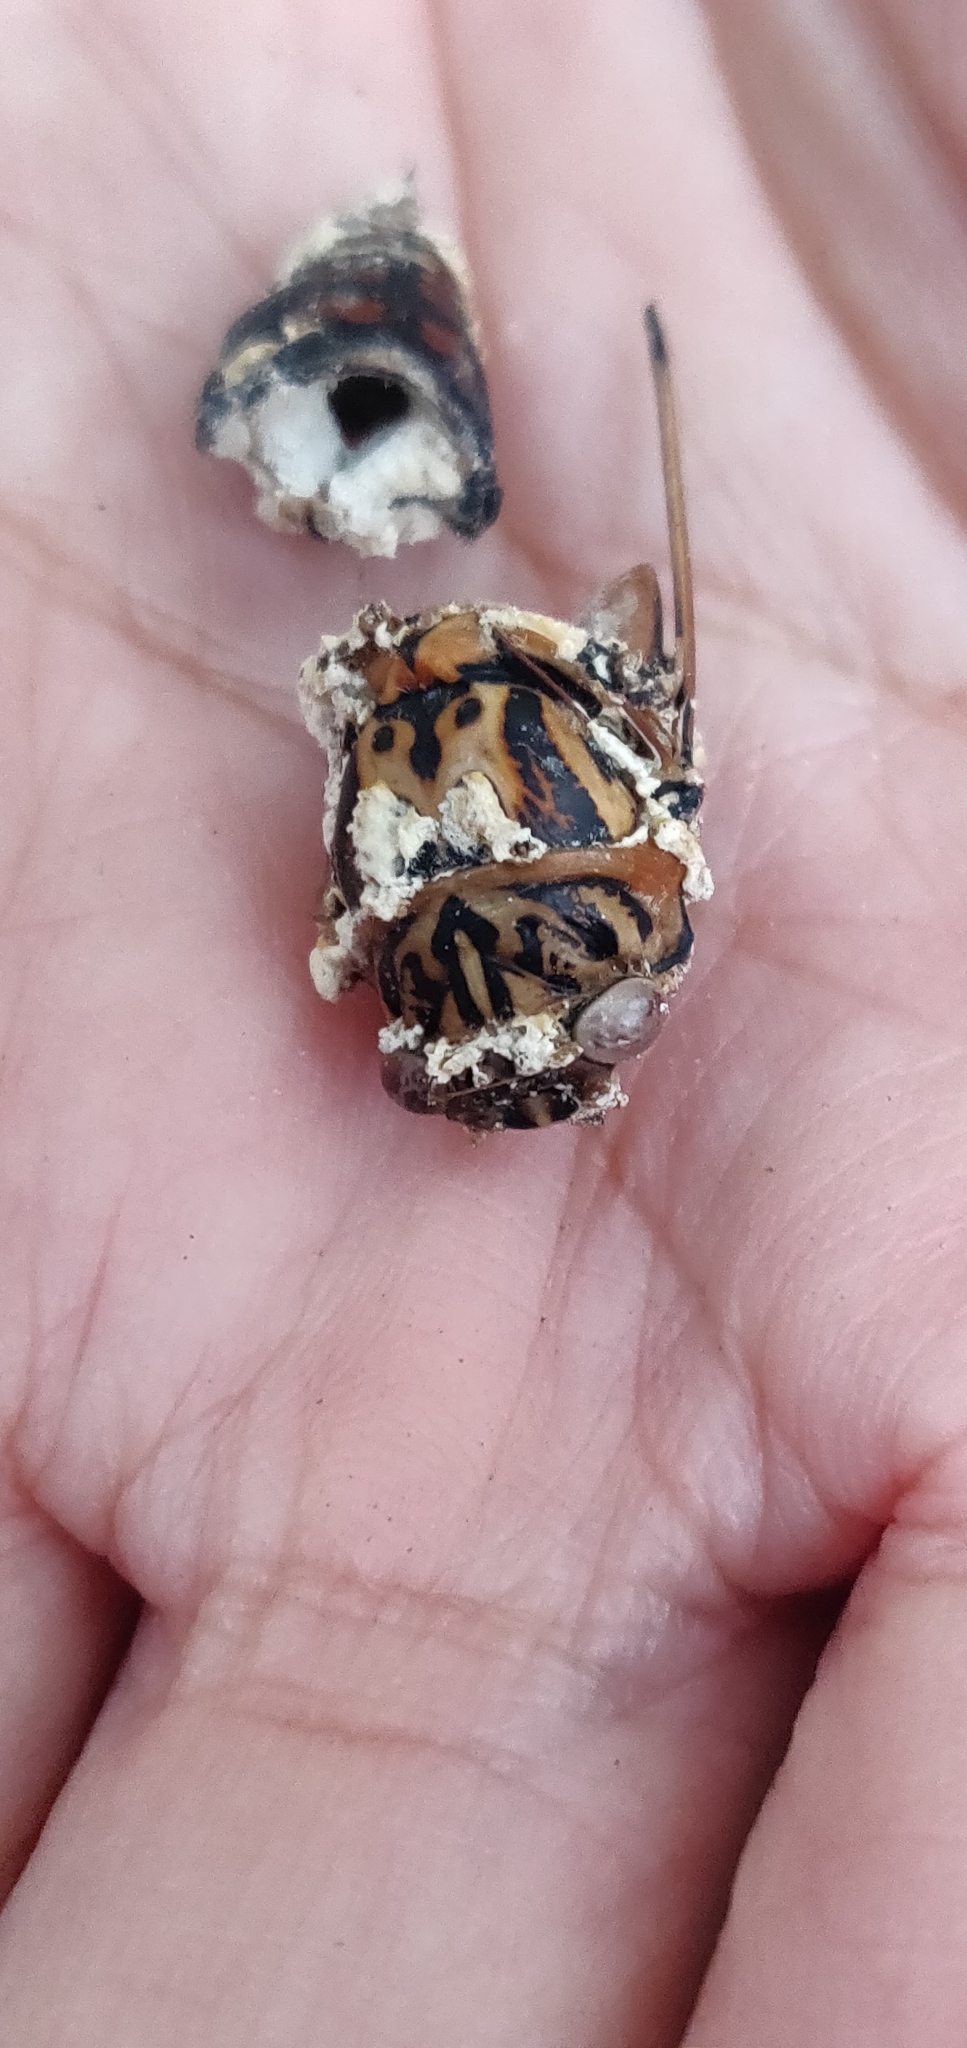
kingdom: Fungi
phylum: Ascomycota
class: Sordariomycetes
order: Hypocreales
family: Cordycipitaceae
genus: Beauveria
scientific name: Beauveria
